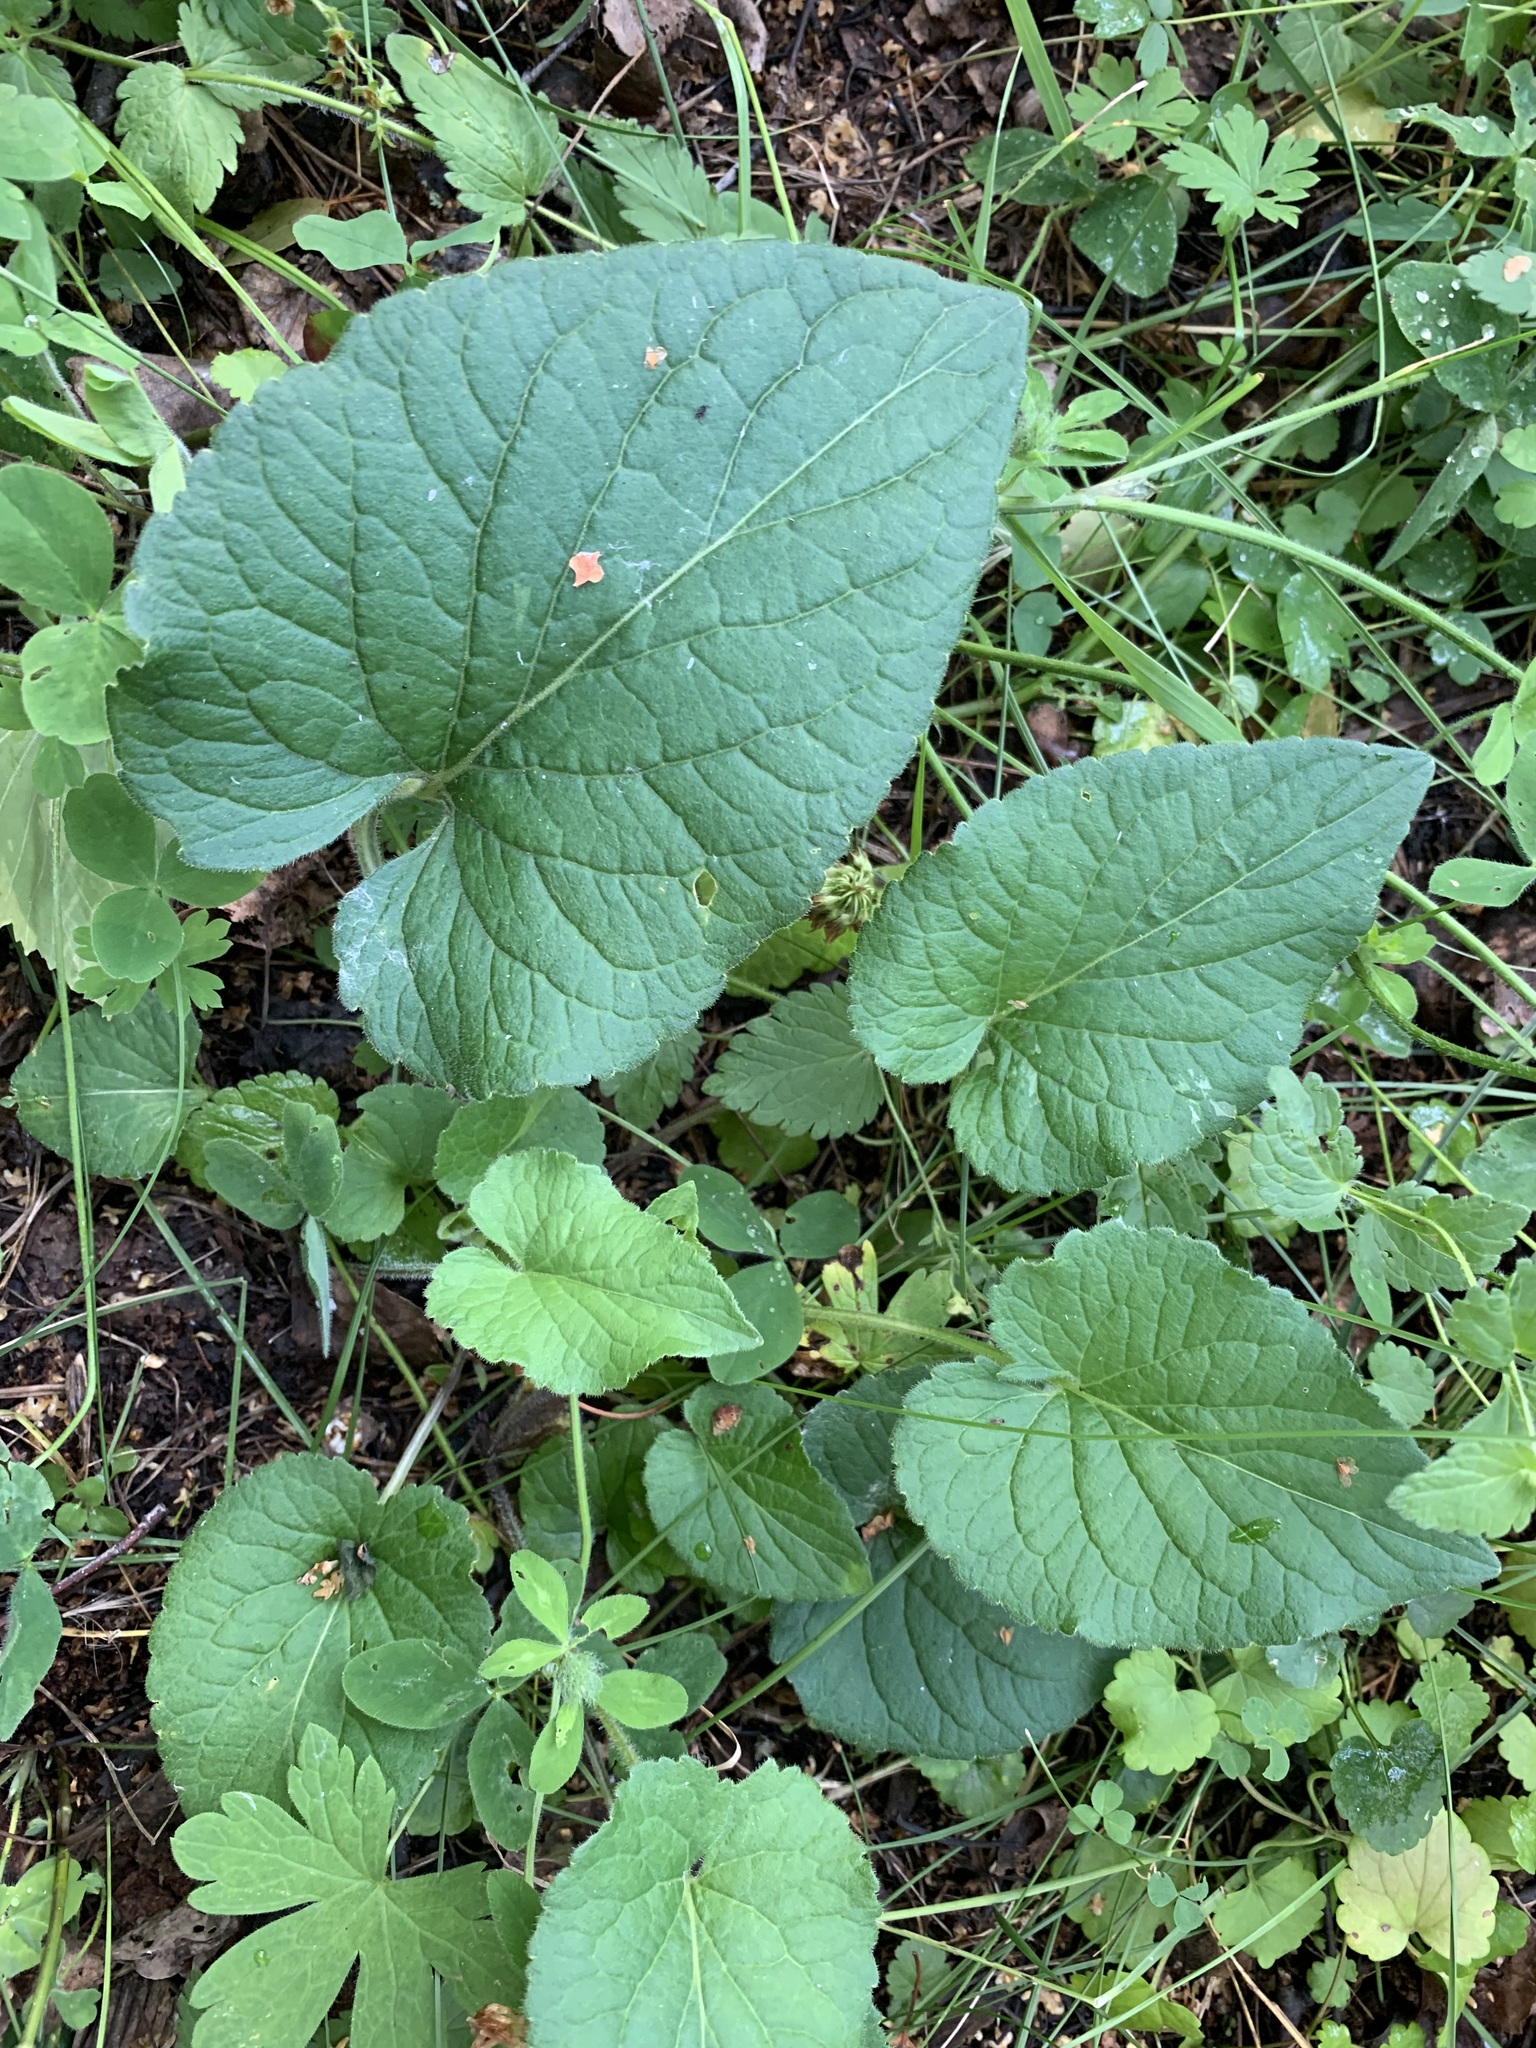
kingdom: Plantae
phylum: Tracheophyta
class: Magnoliopsida
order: Malpighiales
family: Violaceae
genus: Viola
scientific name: Viola hirta
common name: Hairy violet
